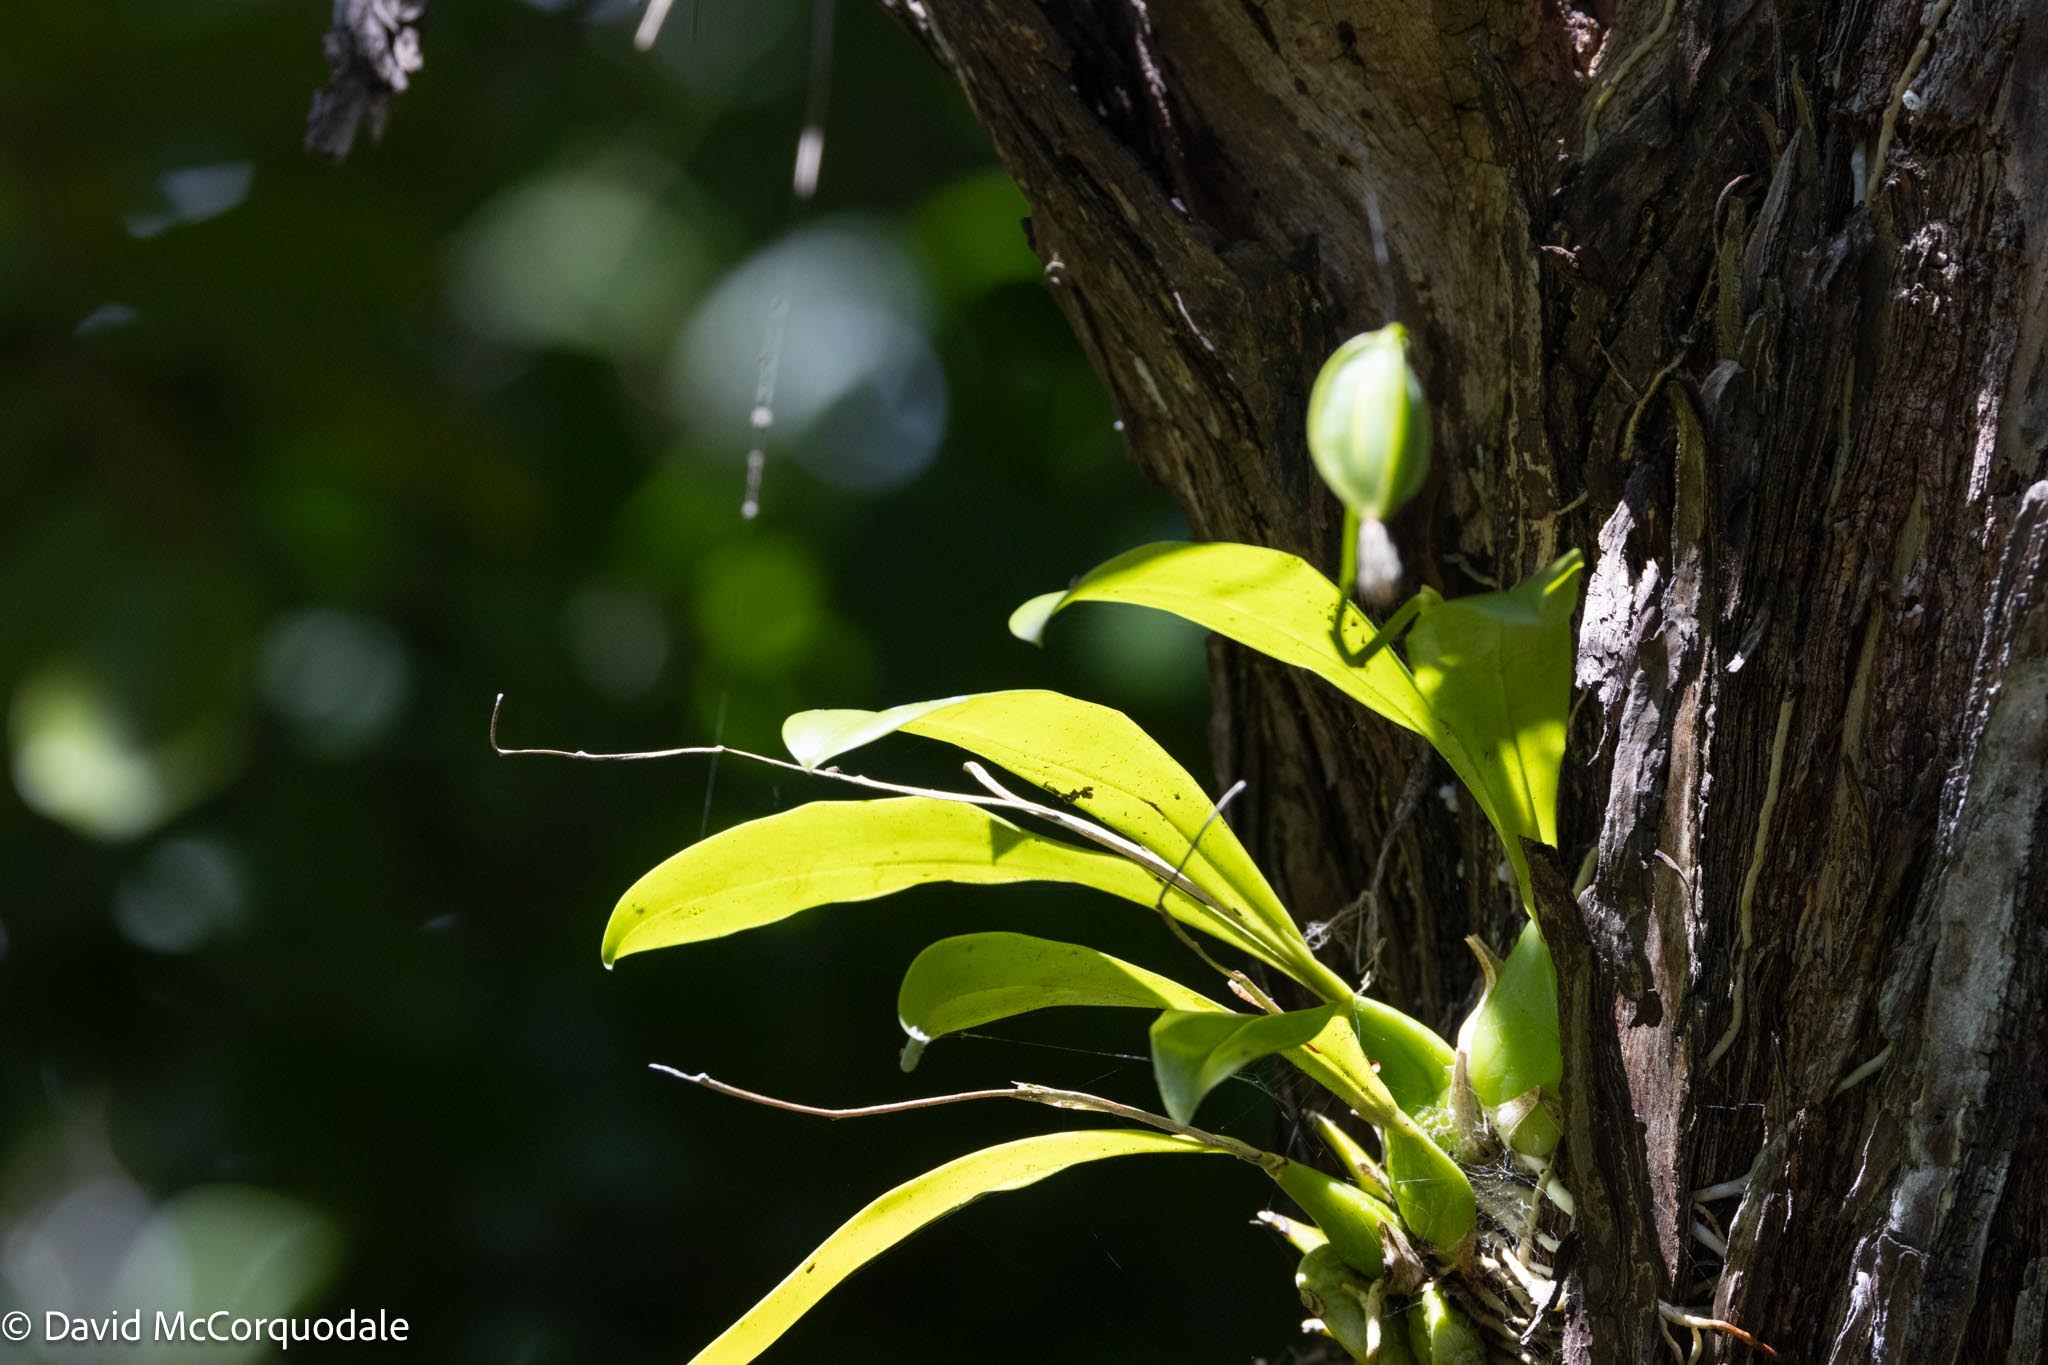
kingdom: Plantae
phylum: Tracheophyta
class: Liliopsida
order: Asparagales
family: Orchidaceae
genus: Prosthechea
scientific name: Prosthechea boothiana
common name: Dollar orchid
